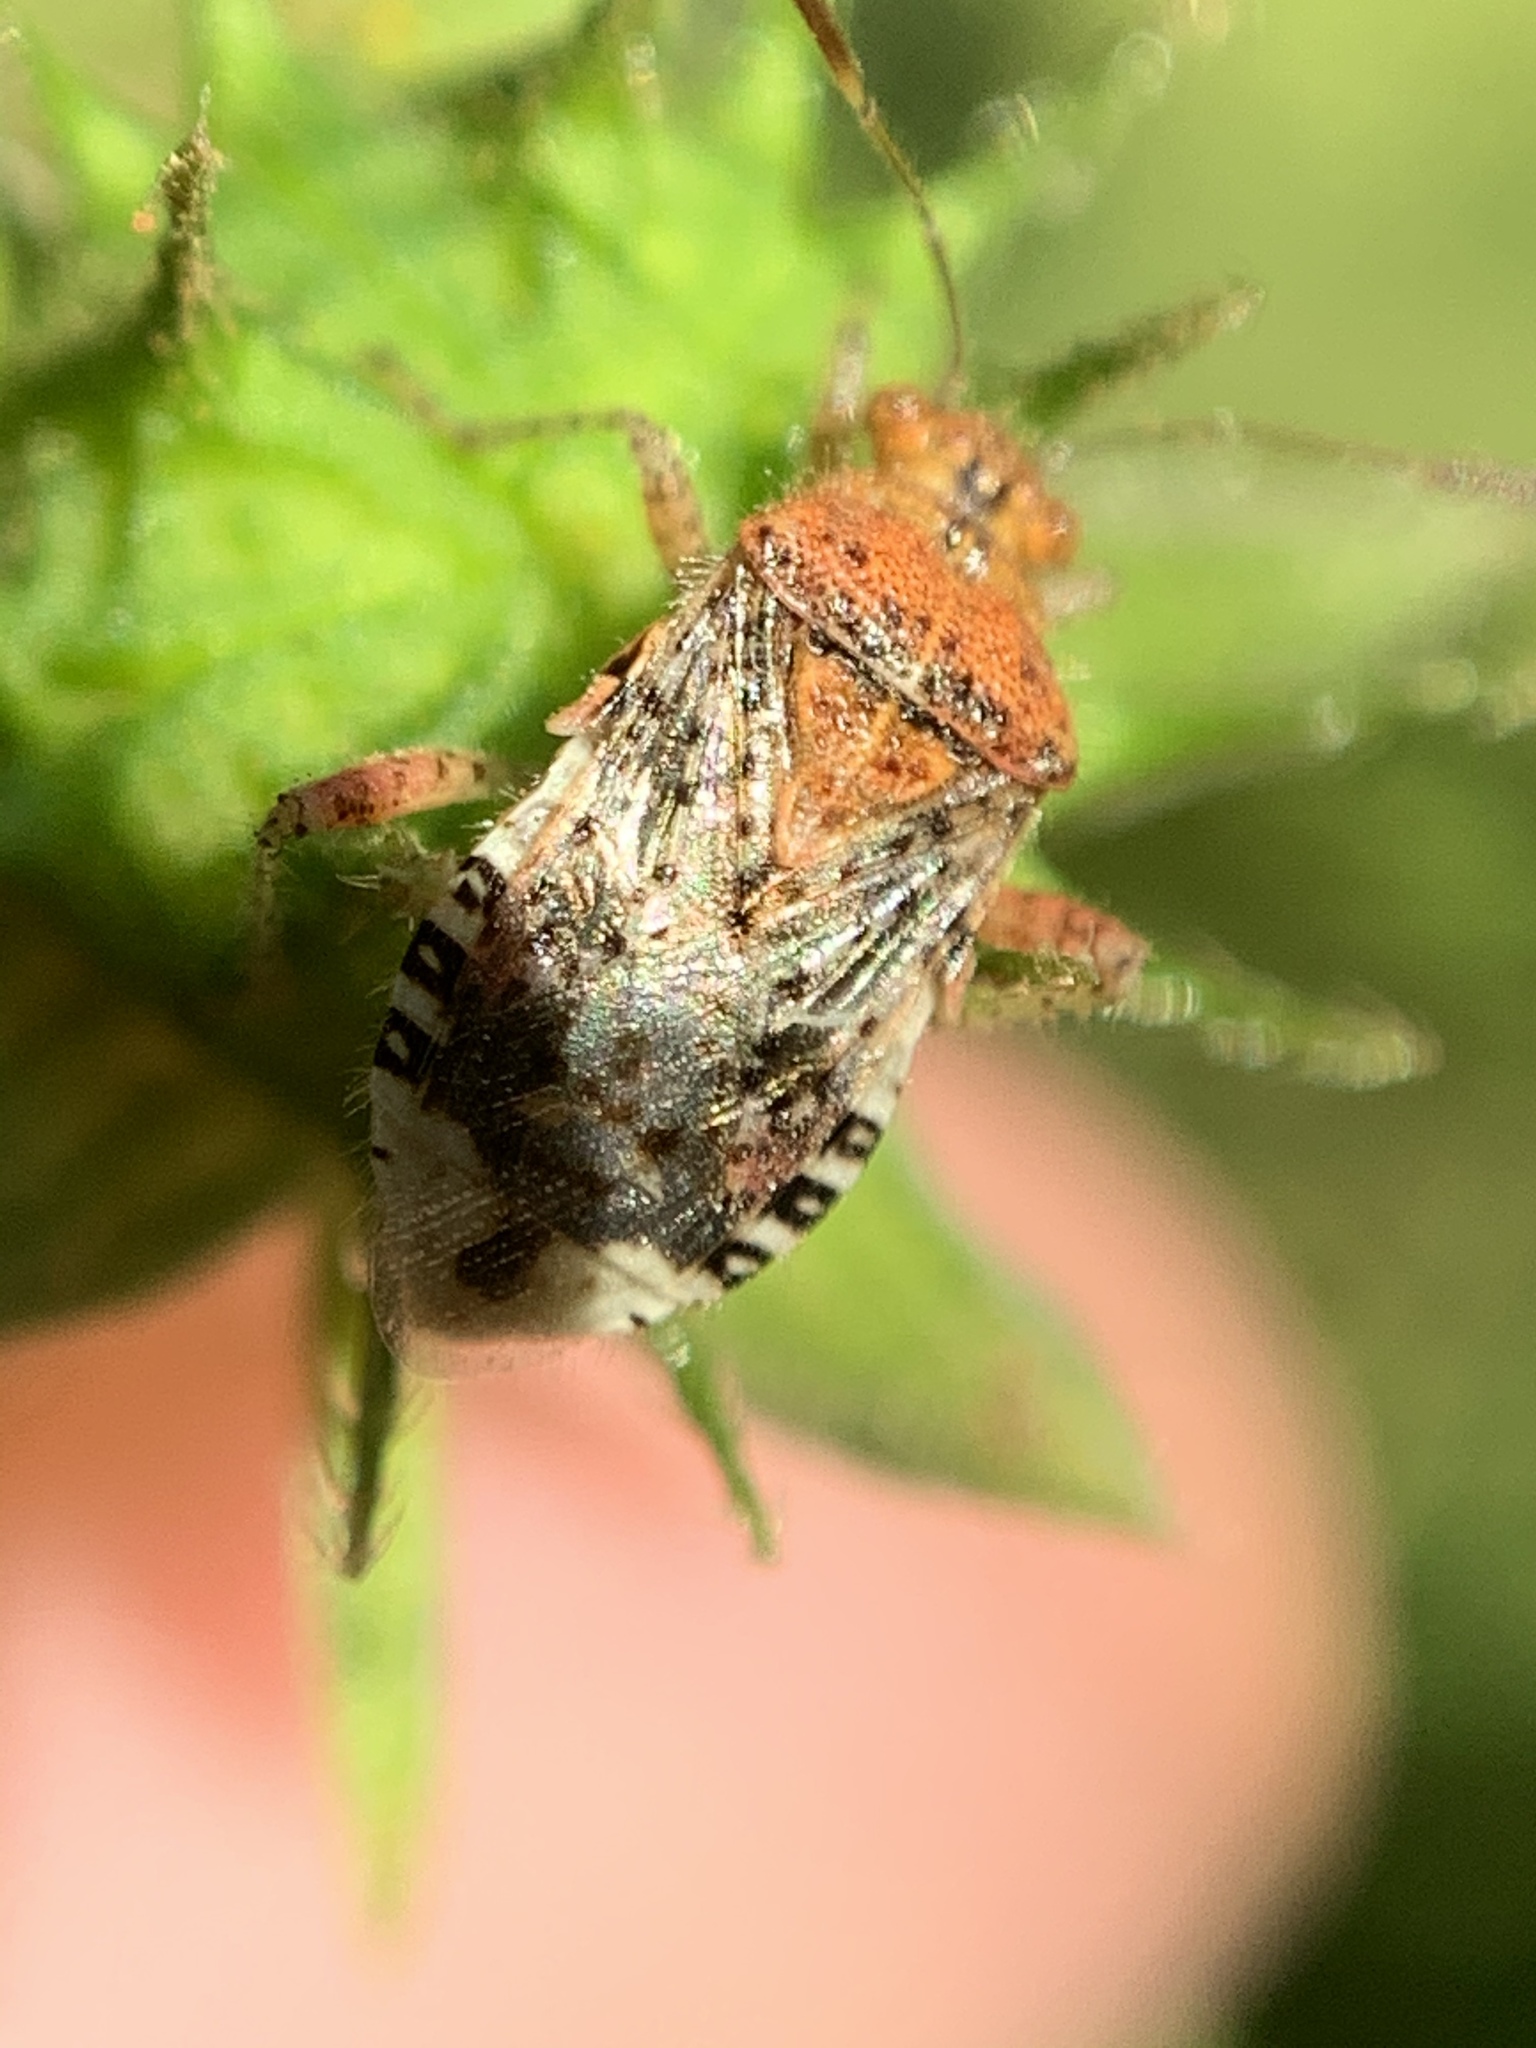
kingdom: Animalia
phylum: Arthropoda
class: Insecta
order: Hemiptera
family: Rhopalidae
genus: Niesthrea
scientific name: Niesthrea
